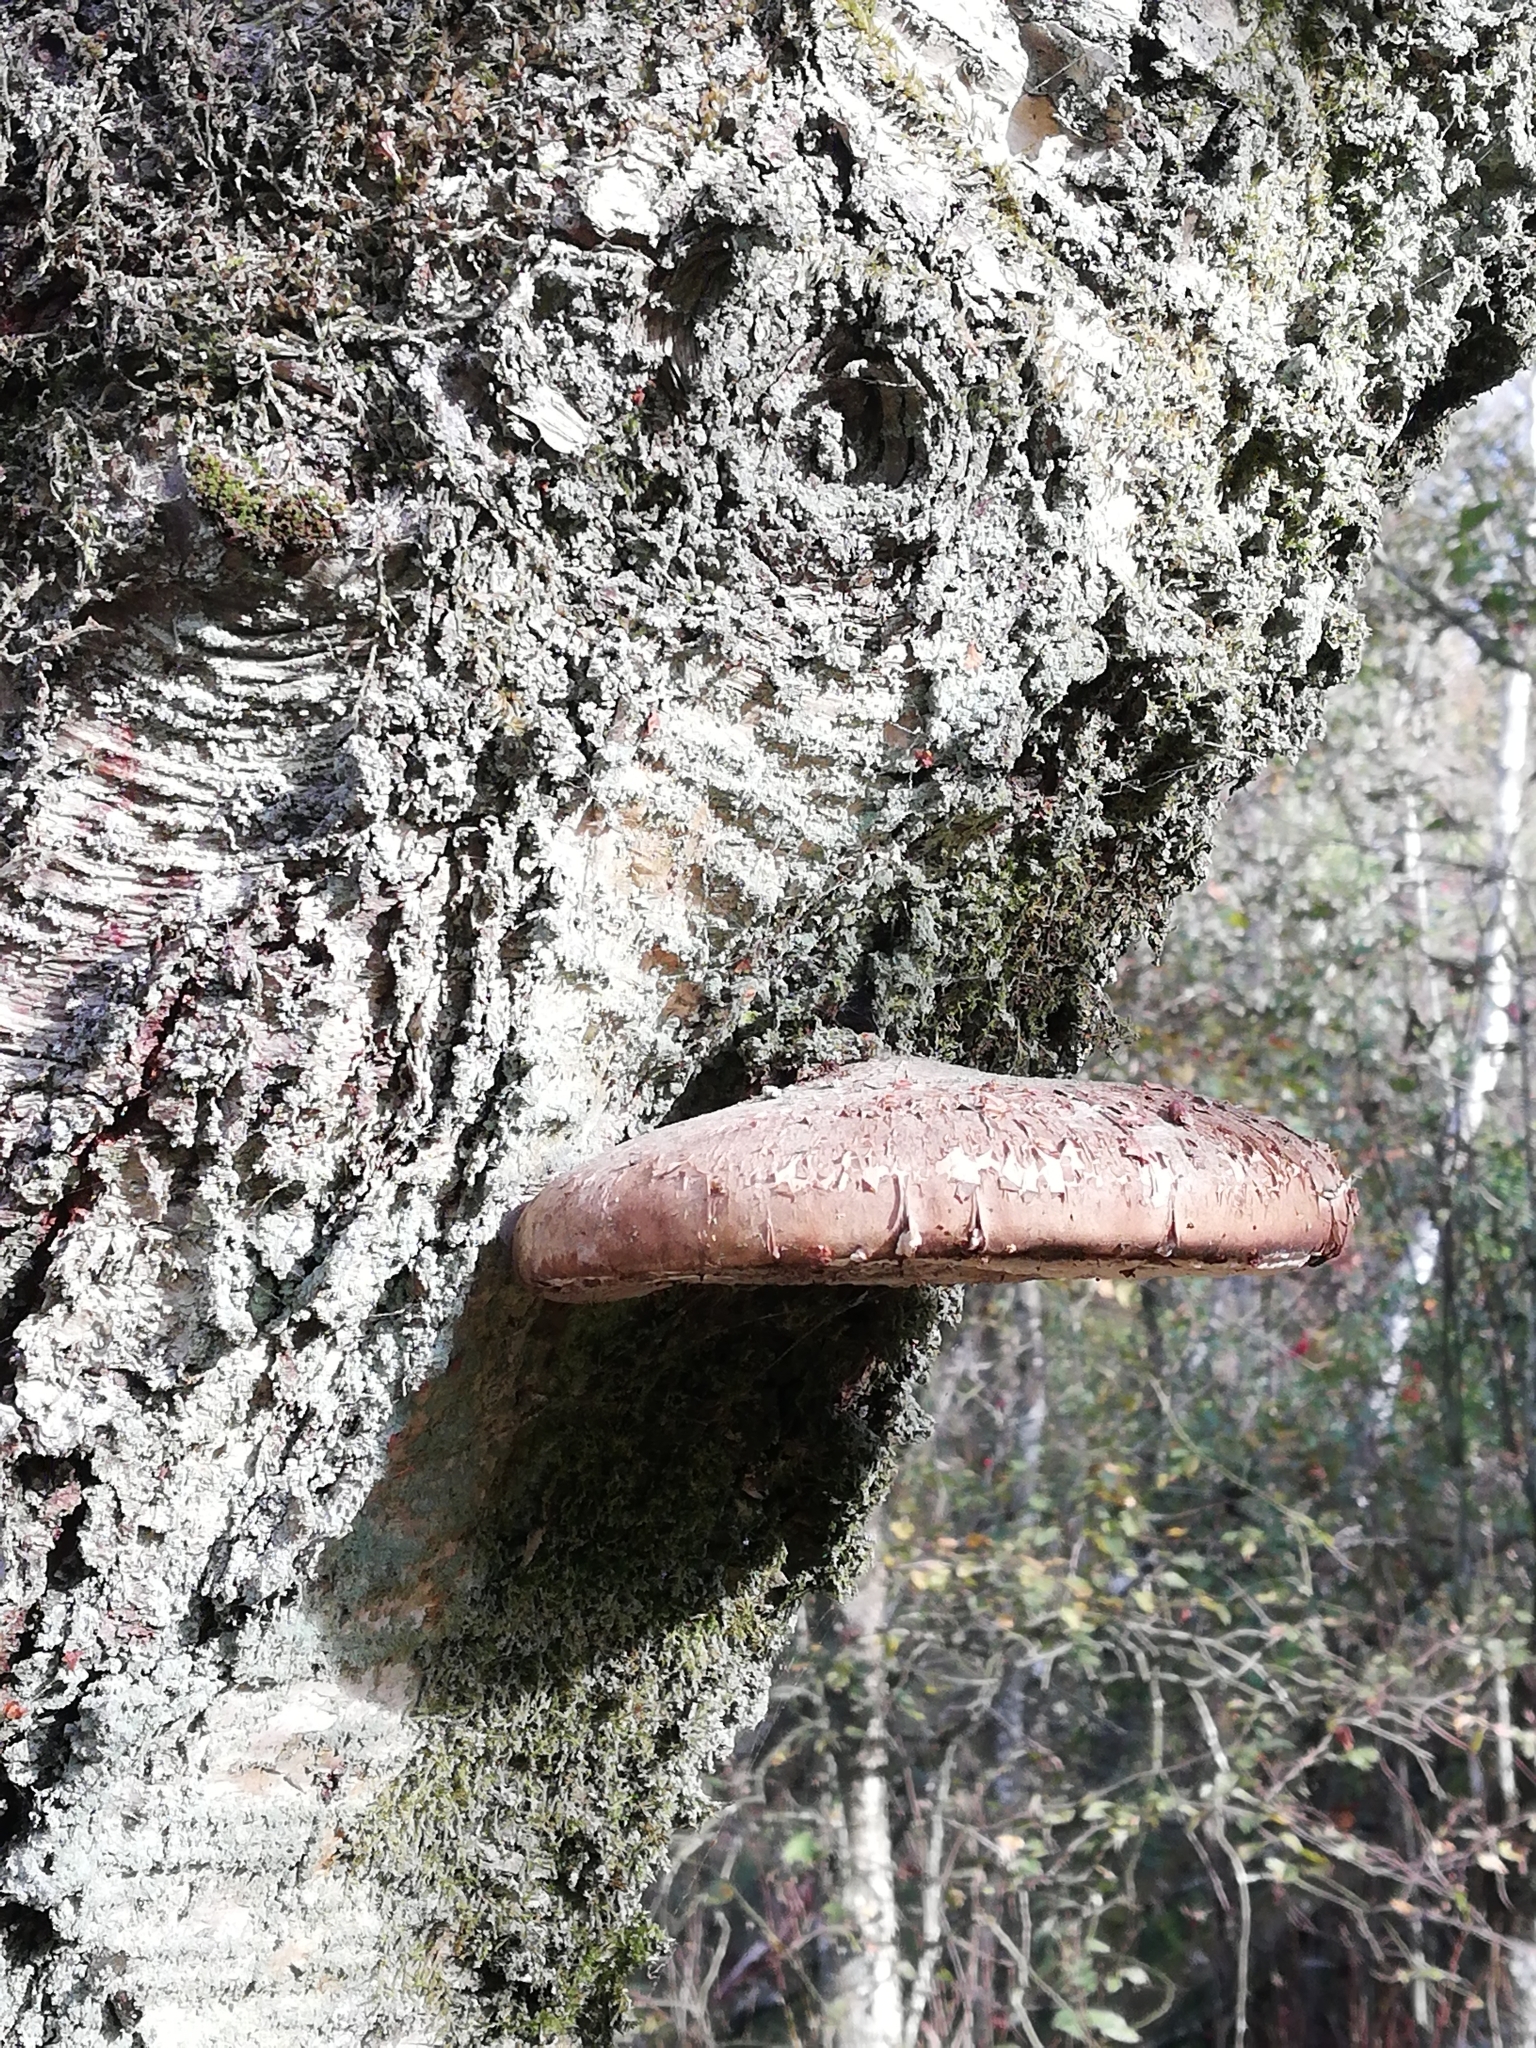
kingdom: Fungi
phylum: Basidiomycota
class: Agaricomycetes
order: Polyporales
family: Fomitopsidaceae
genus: Fomitopsis
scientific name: Fomitopsis betulina
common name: Birch polypore
